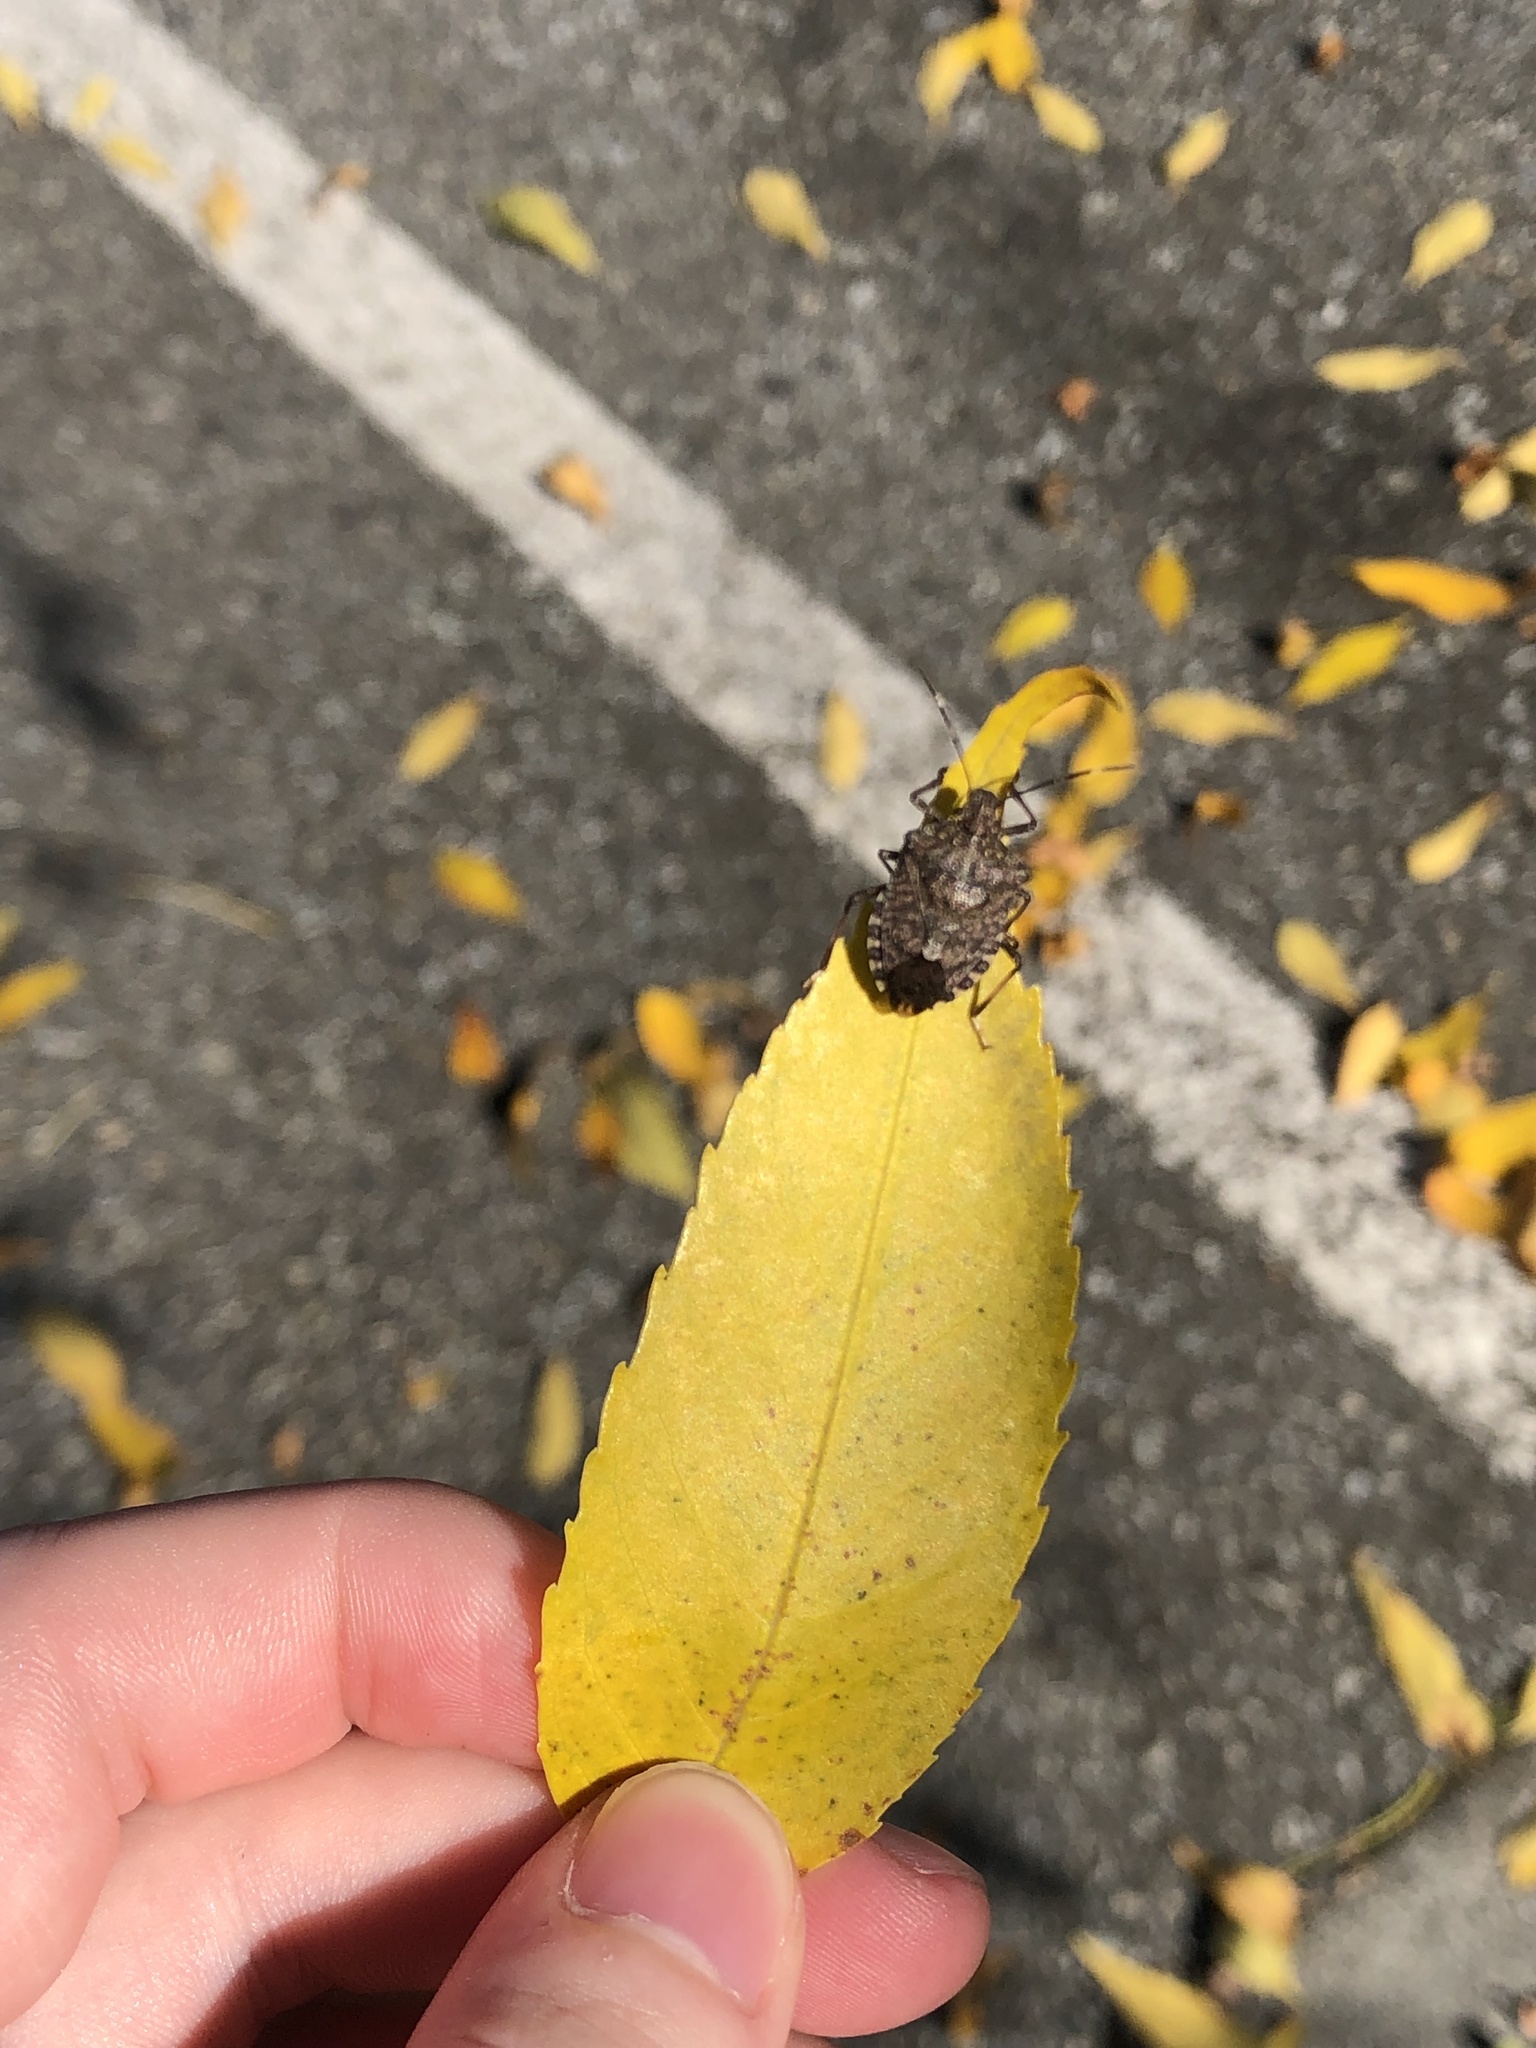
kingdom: Animalia
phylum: Arthropoda
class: Insecta
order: Hemiptera
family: Pentatomidae
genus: Halyomorpha
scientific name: Halyomorpha halys
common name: Brown marmorated stink bug
